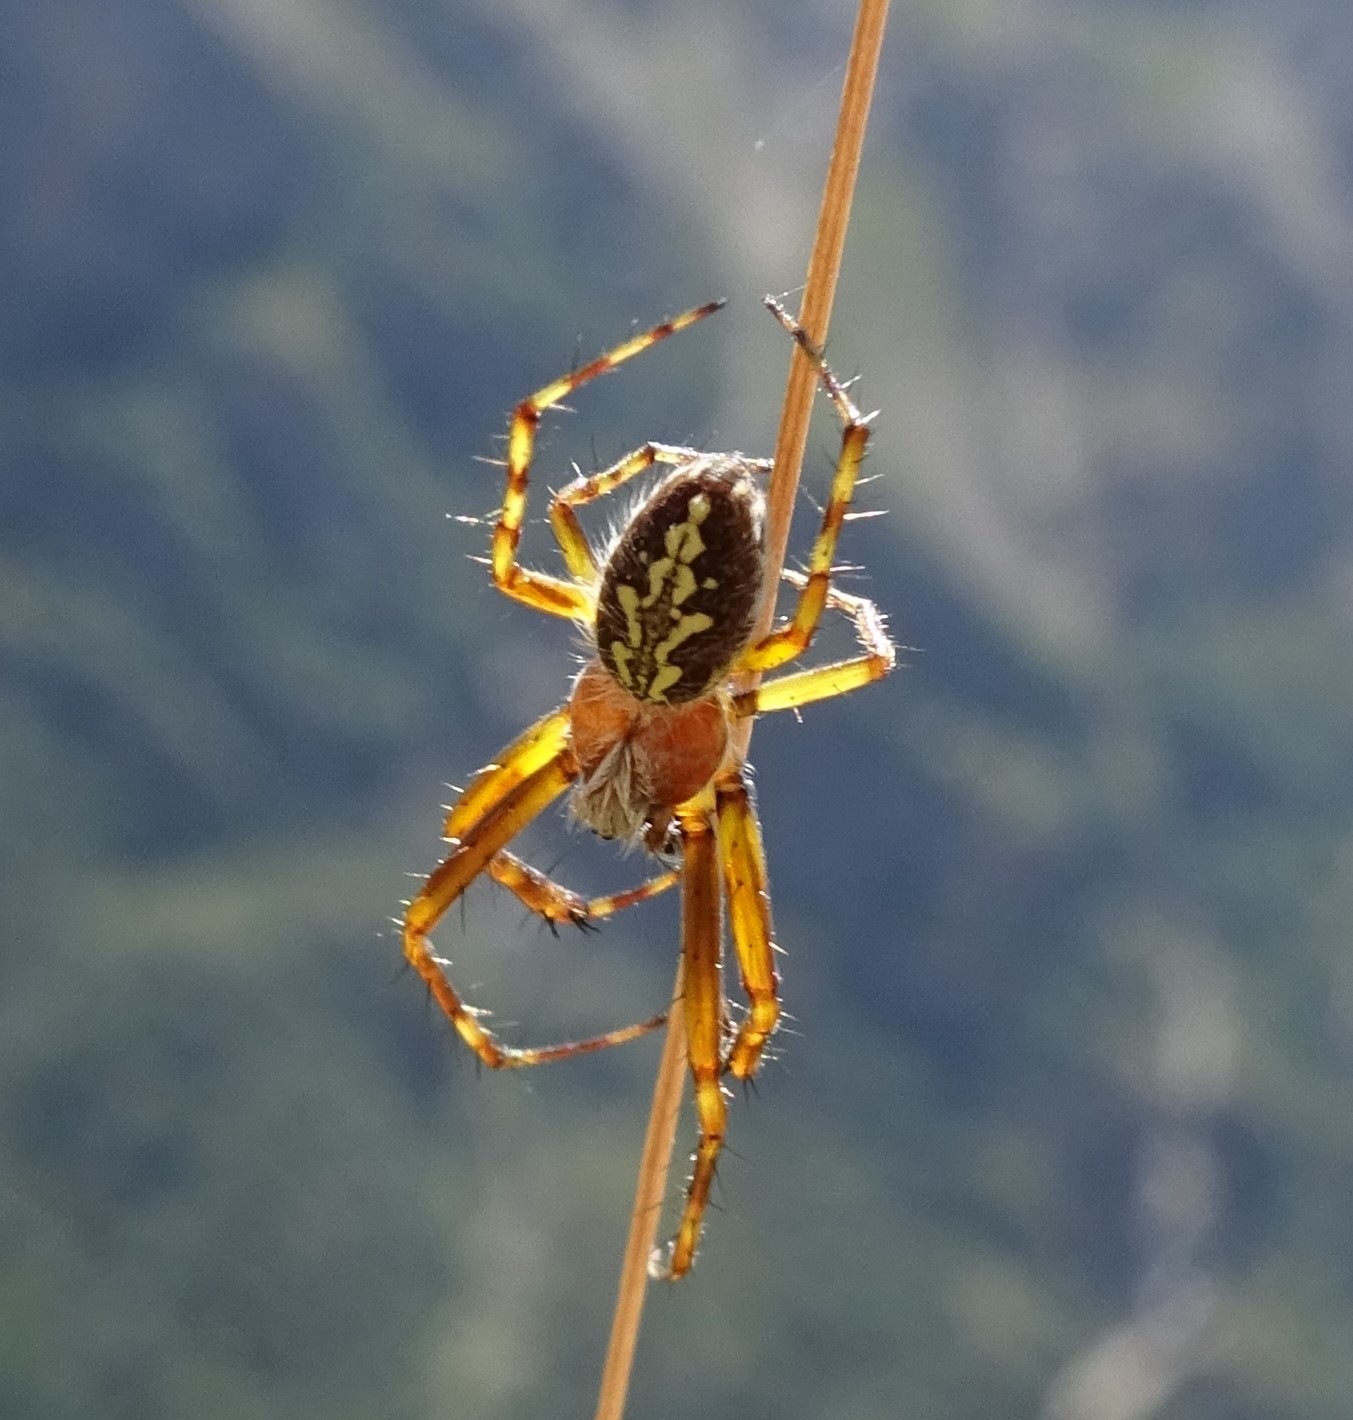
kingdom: Animalia
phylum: Arthropoda
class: Arachnida
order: Araneae
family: Araneidae
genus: Aculepeira
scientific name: Aculepeira ceropegia
